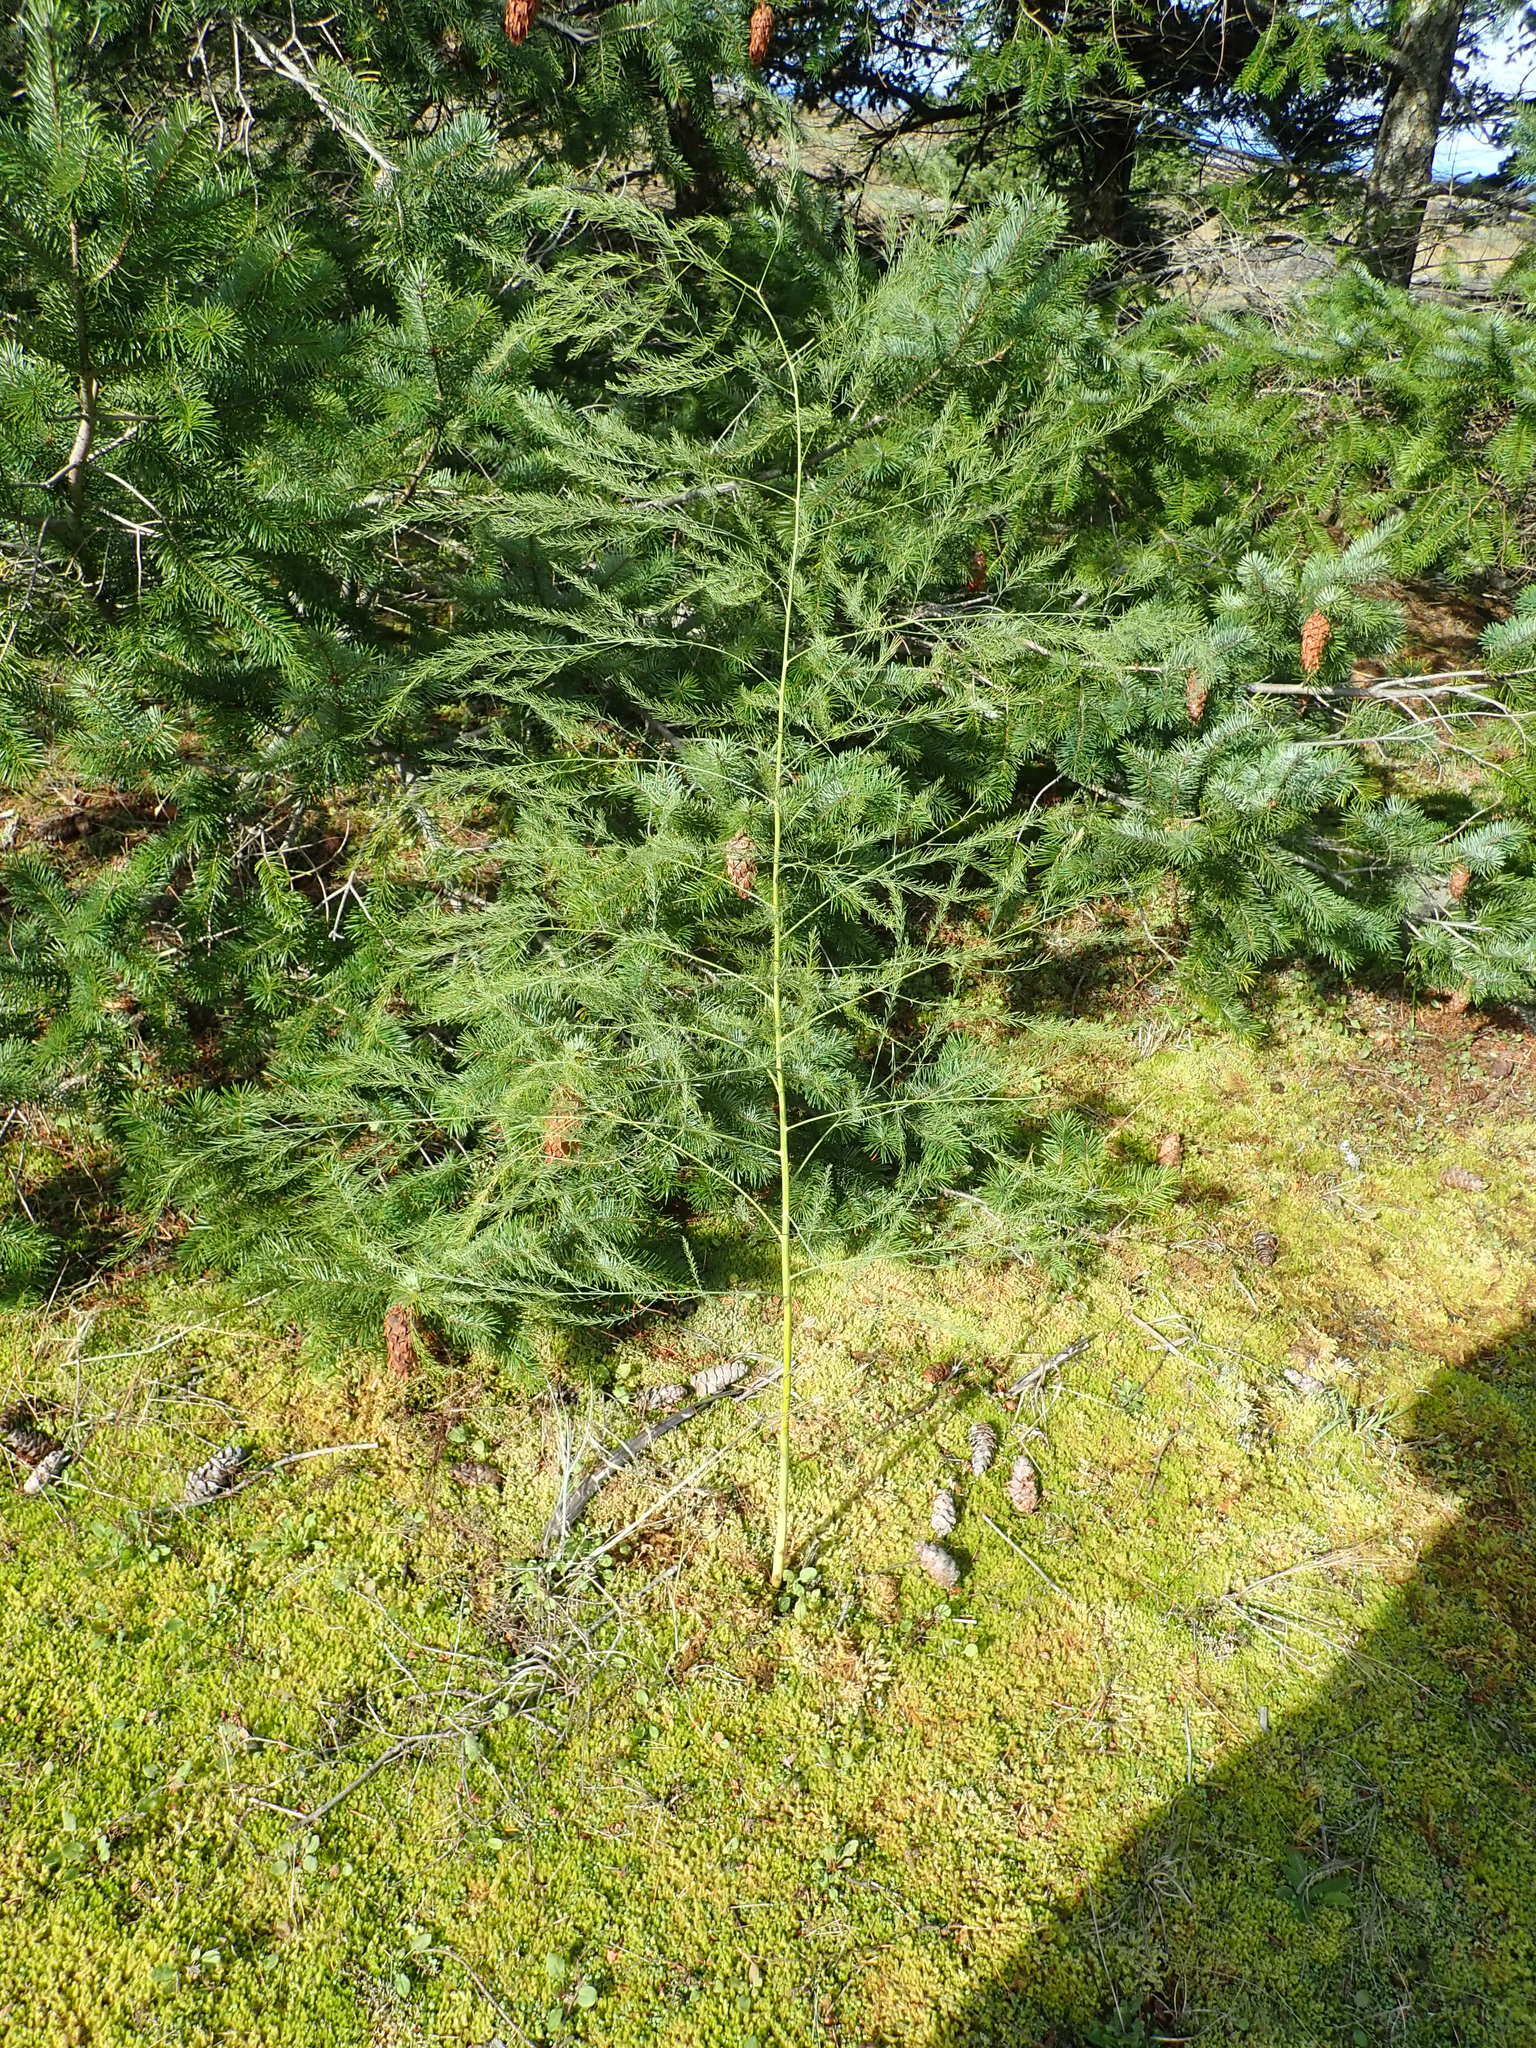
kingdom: Plantae
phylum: Tracheophyta
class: Liliopsida
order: Asparagales
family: Asparagaceae
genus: Asparagus
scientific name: Asparagus officinalis
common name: Garden asparagus
